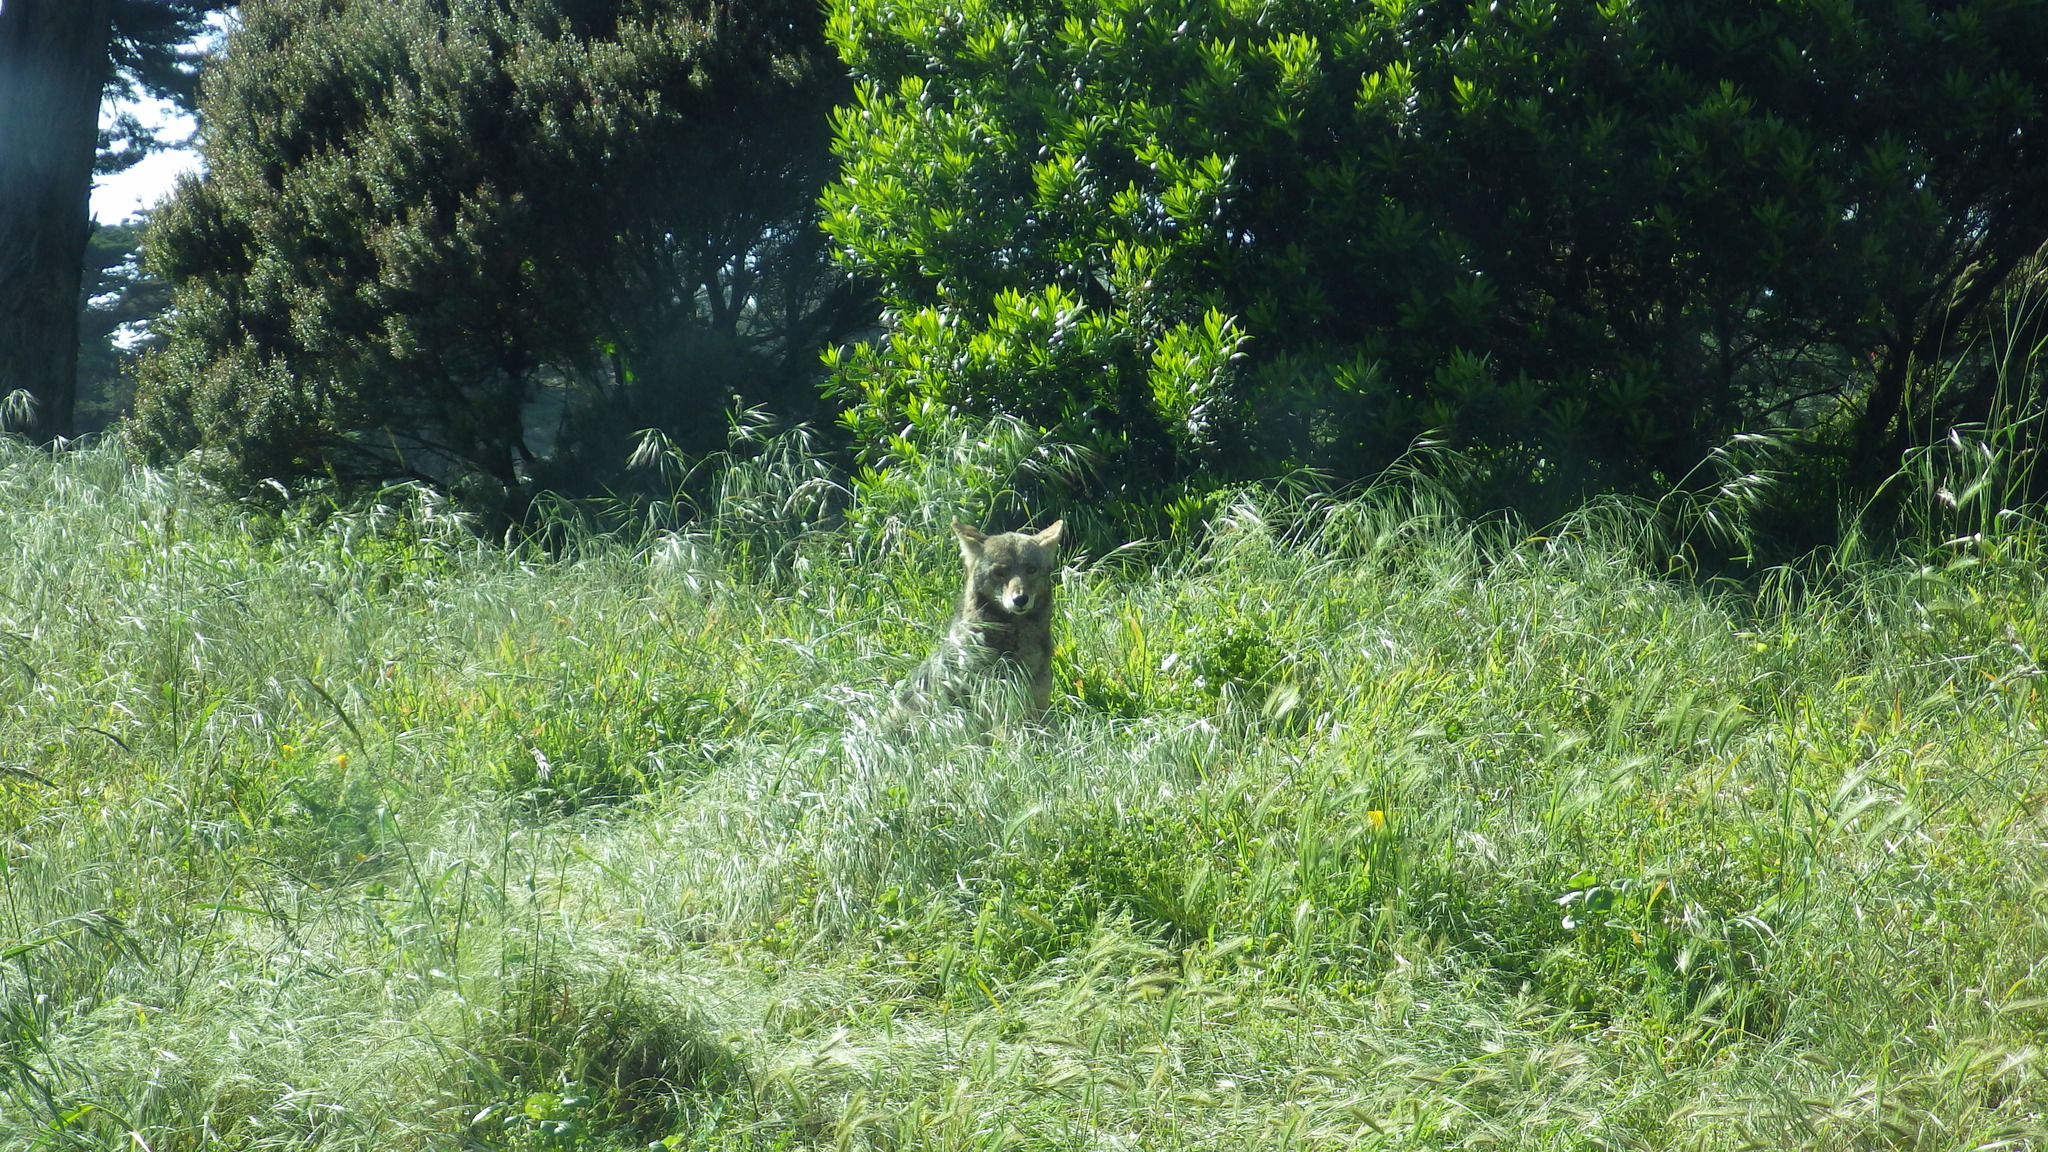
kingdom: Animalia
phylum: Chordata
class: Mammalia
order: Carnivora
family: Canidae
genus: Canis
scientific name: Canis latrans
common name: Coyote
